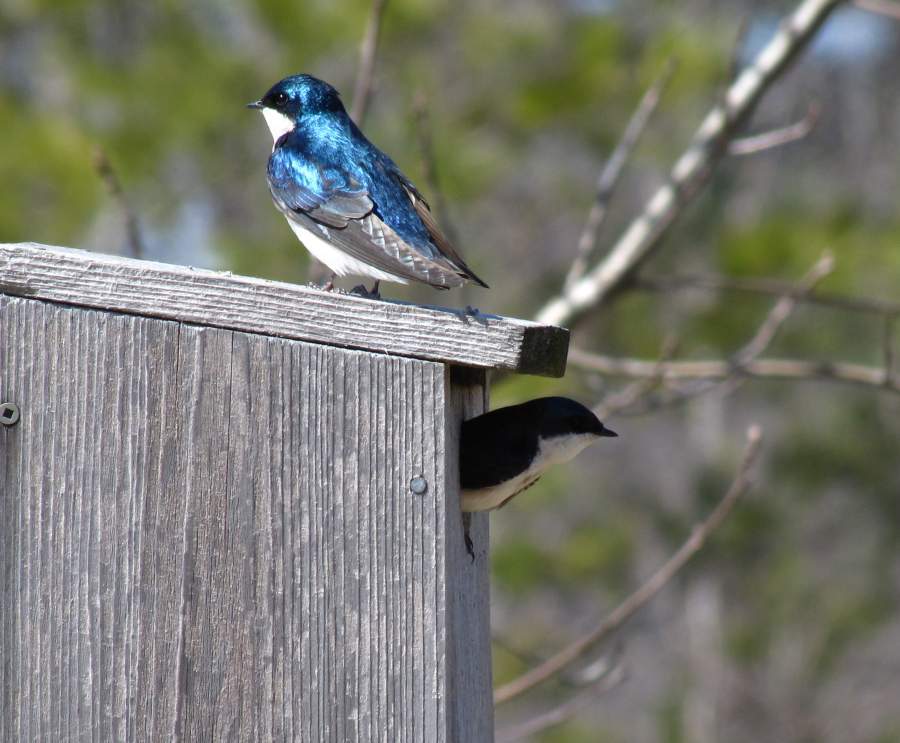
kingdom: Animalia
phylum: Chordata
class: Aves
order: Passeriformes
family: Hirundinidae
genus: Tachycineta
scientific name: Tachycineta bicolor
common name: Tree swallow
